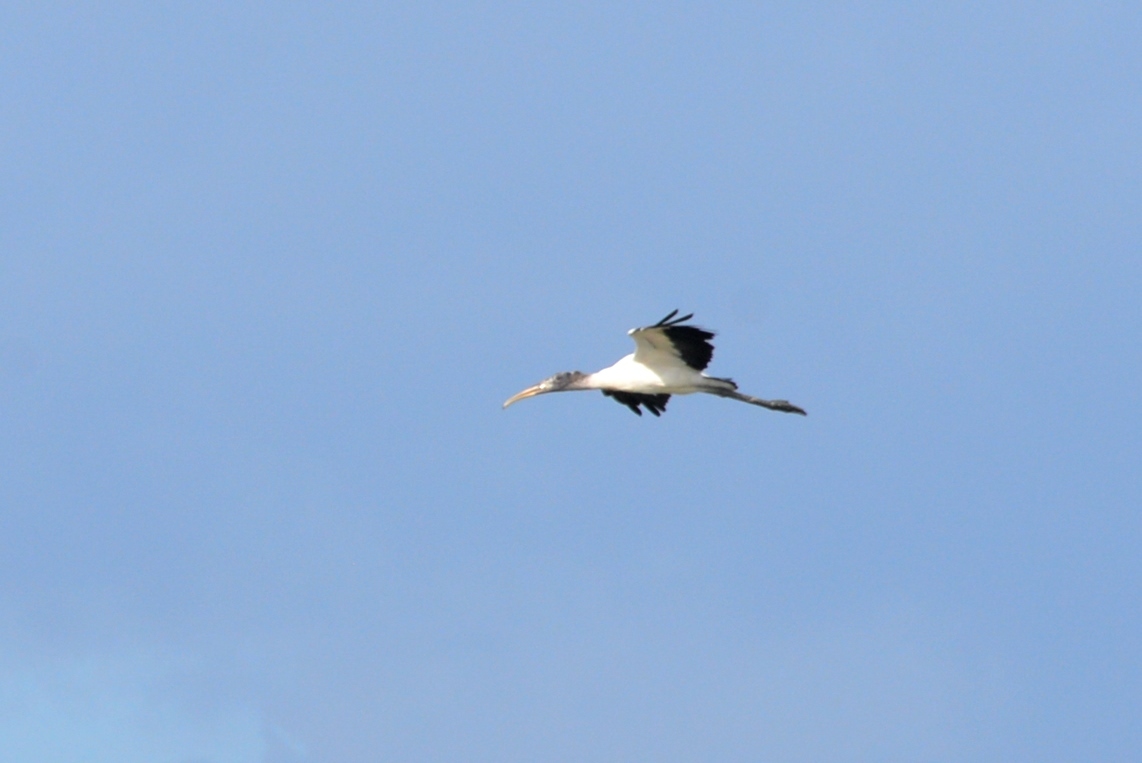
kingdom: Animalia
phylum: Chordata
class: Aves
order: Ciconiiformes
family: Ciconiidae
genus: Mycteria
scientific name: Mycteria americana
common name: Wood stork
